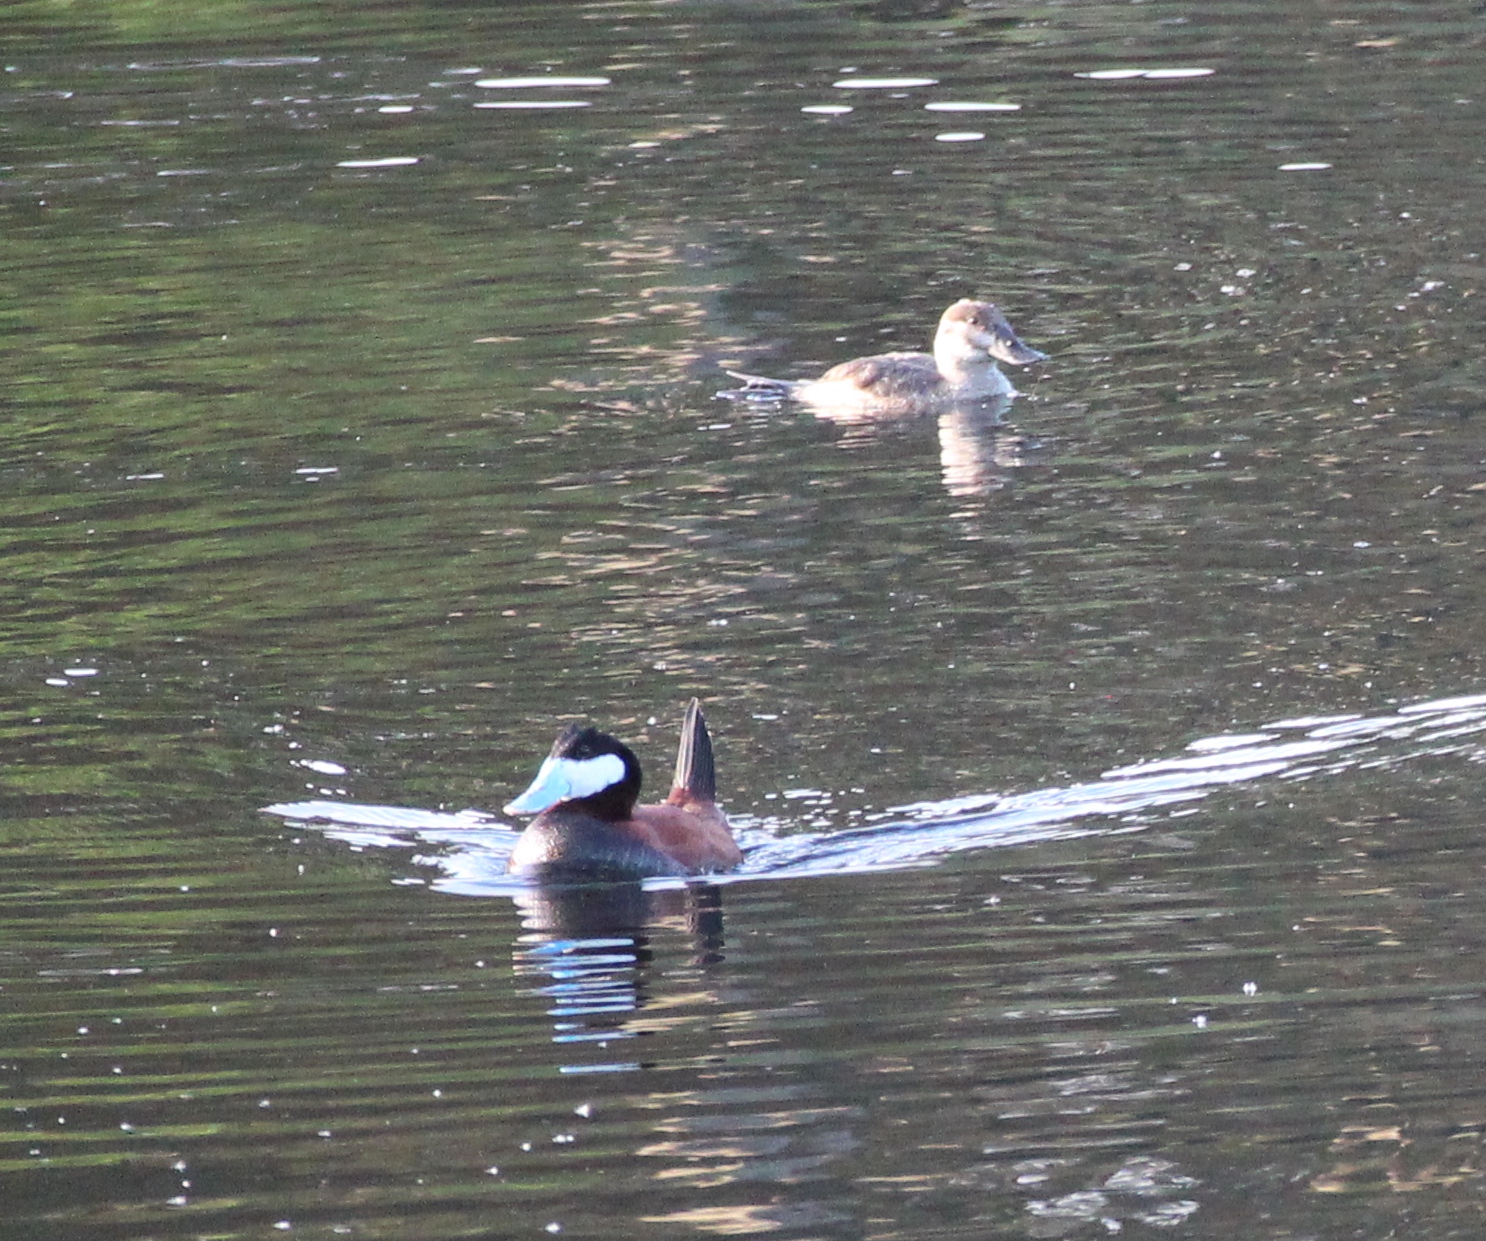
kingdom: Animalia
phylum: Chordata
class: Aves
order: Anseriformes
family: Anatidae
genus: Oxyura
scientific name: Oxyura jamaicensis
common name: Ruddy duck
